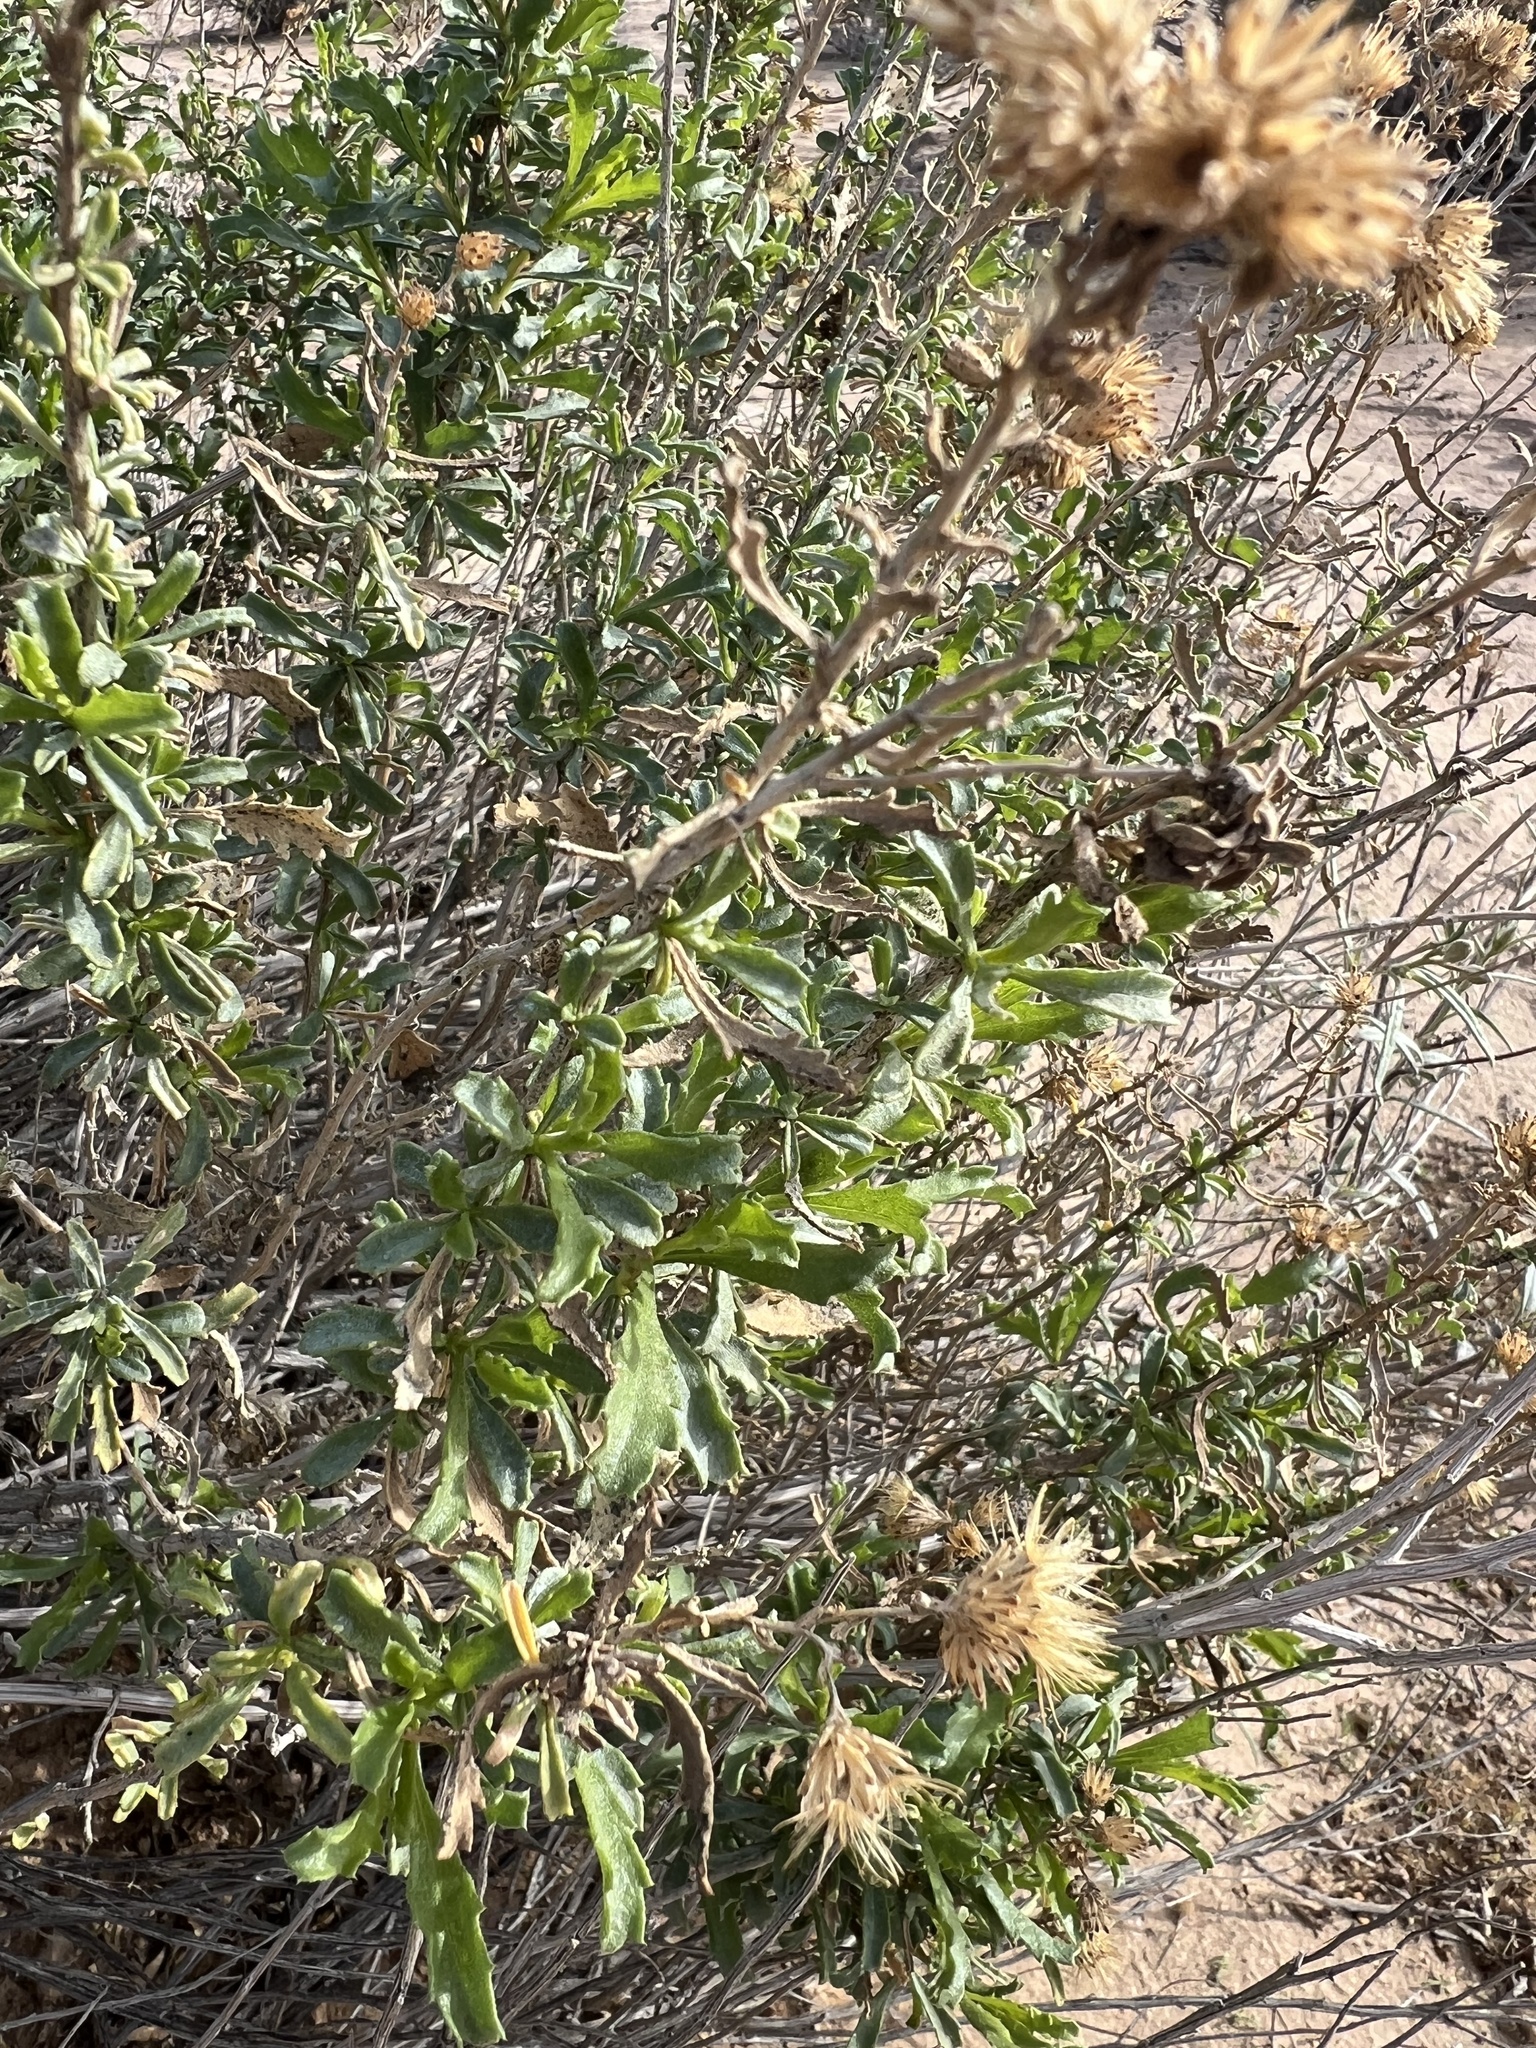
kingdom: Plantae
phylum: Tracheophyta
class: Magnoliopsida
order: Asterales
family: Asteraceae
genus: Isocoma
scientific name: Isocoma acradenia
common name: Alkali jimmyweed
